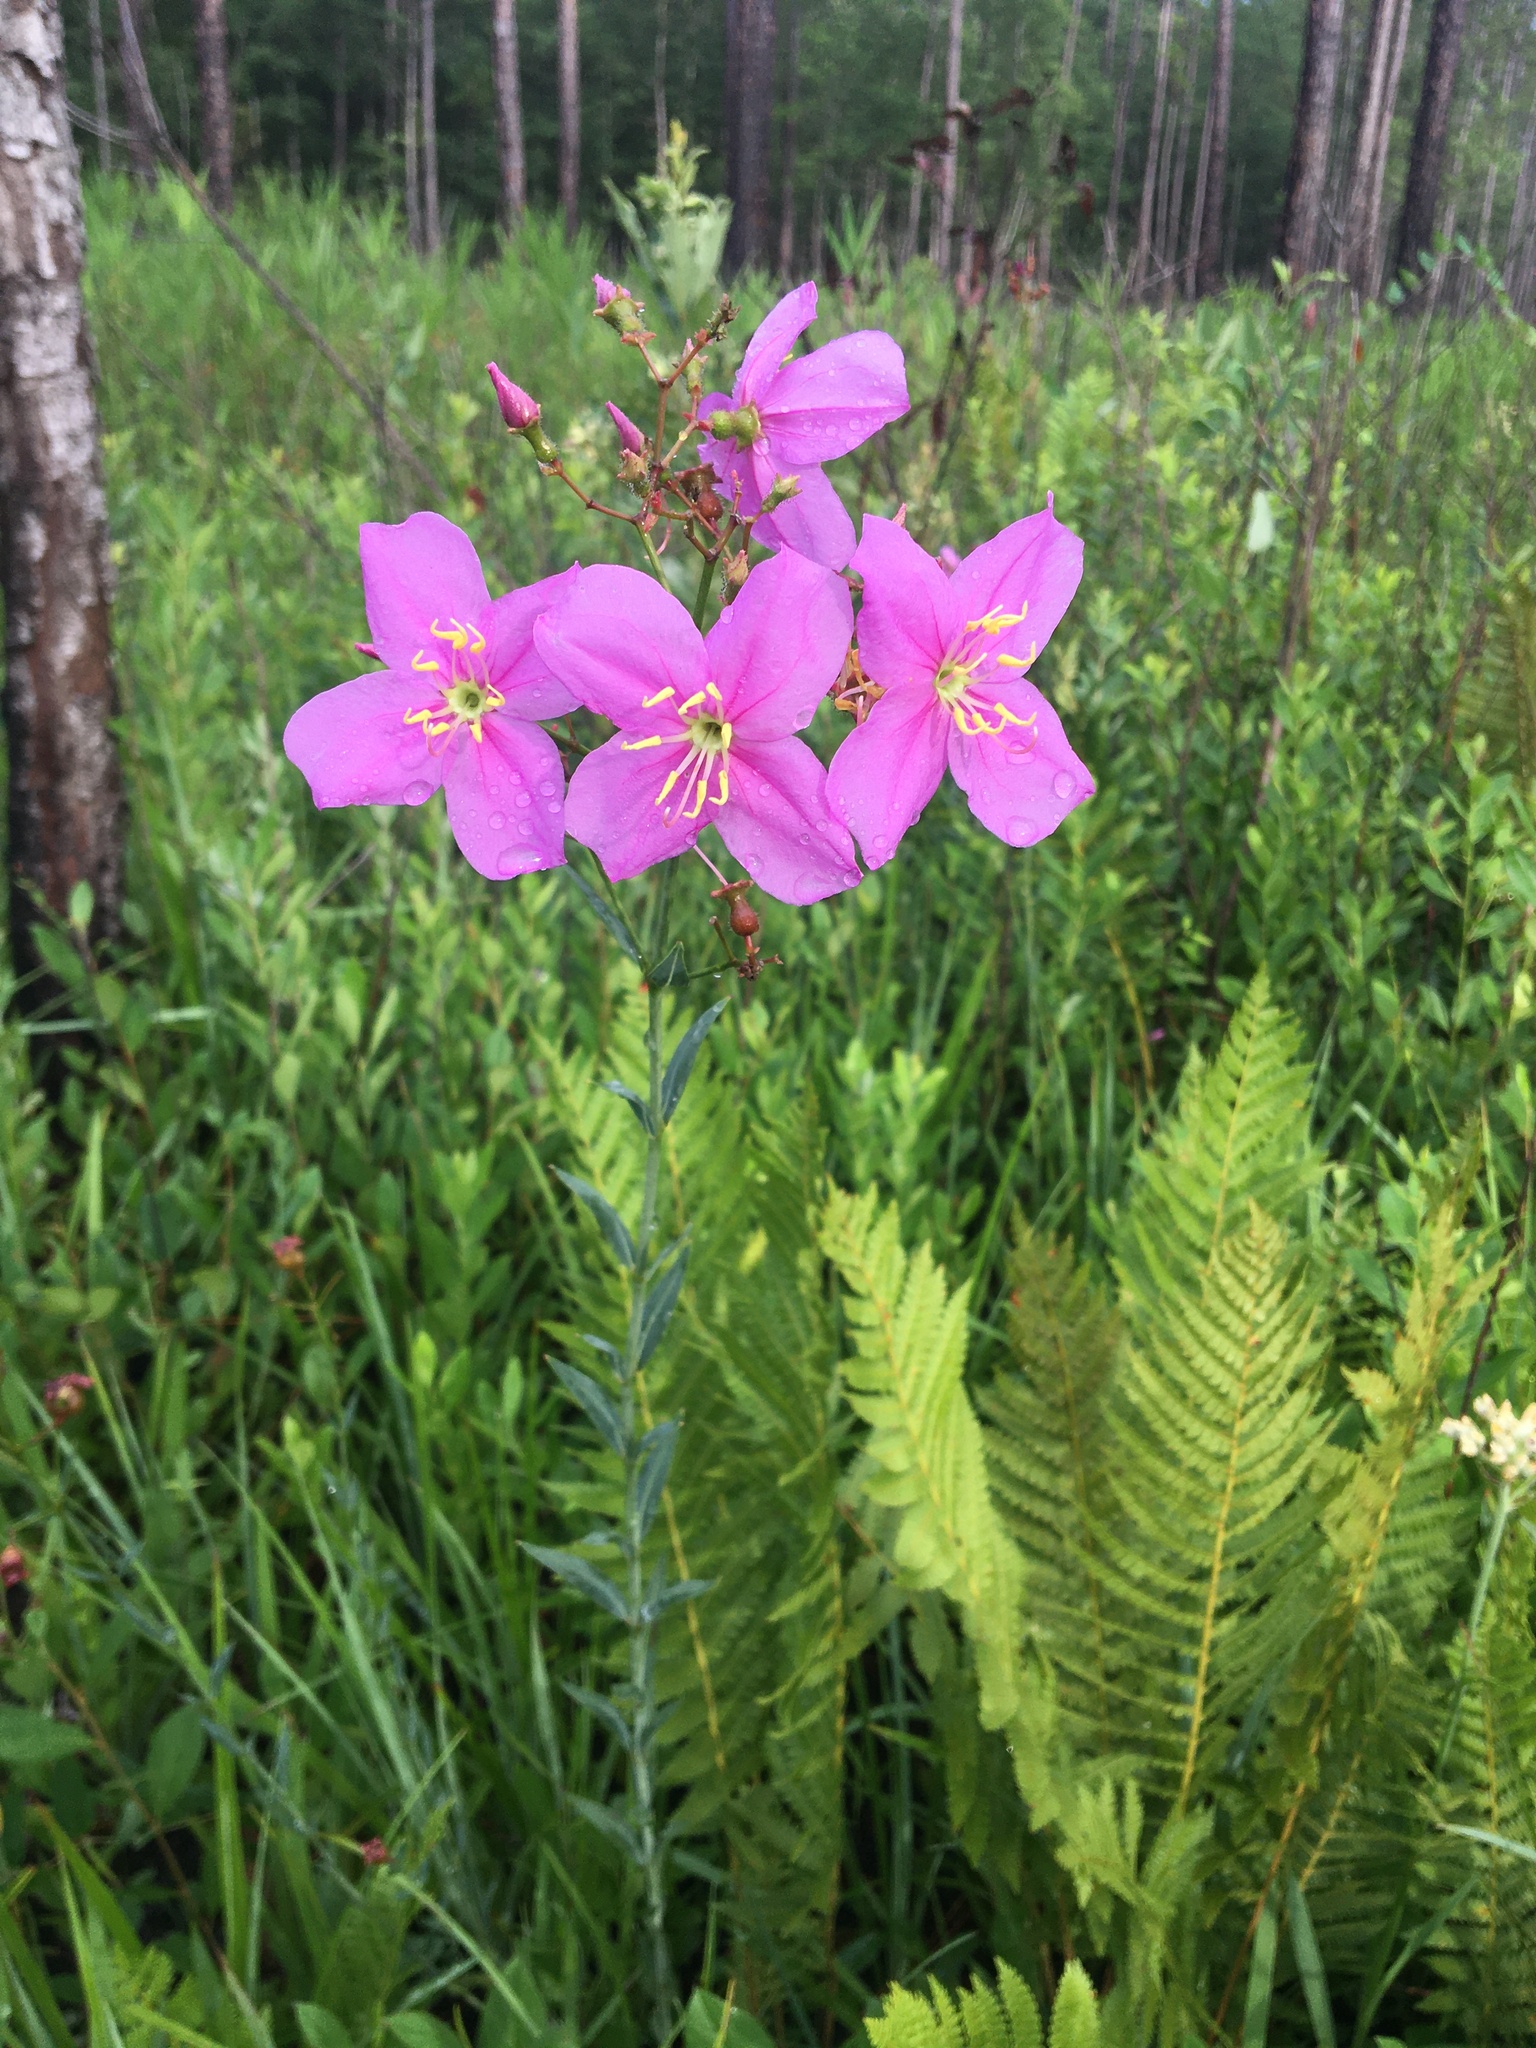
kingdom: Plantae
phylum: Tracheophyta
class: Magnoliopsida
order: Myrtales
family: Melastomataceae
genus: Rhexia
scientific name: Rhexia alifanus
